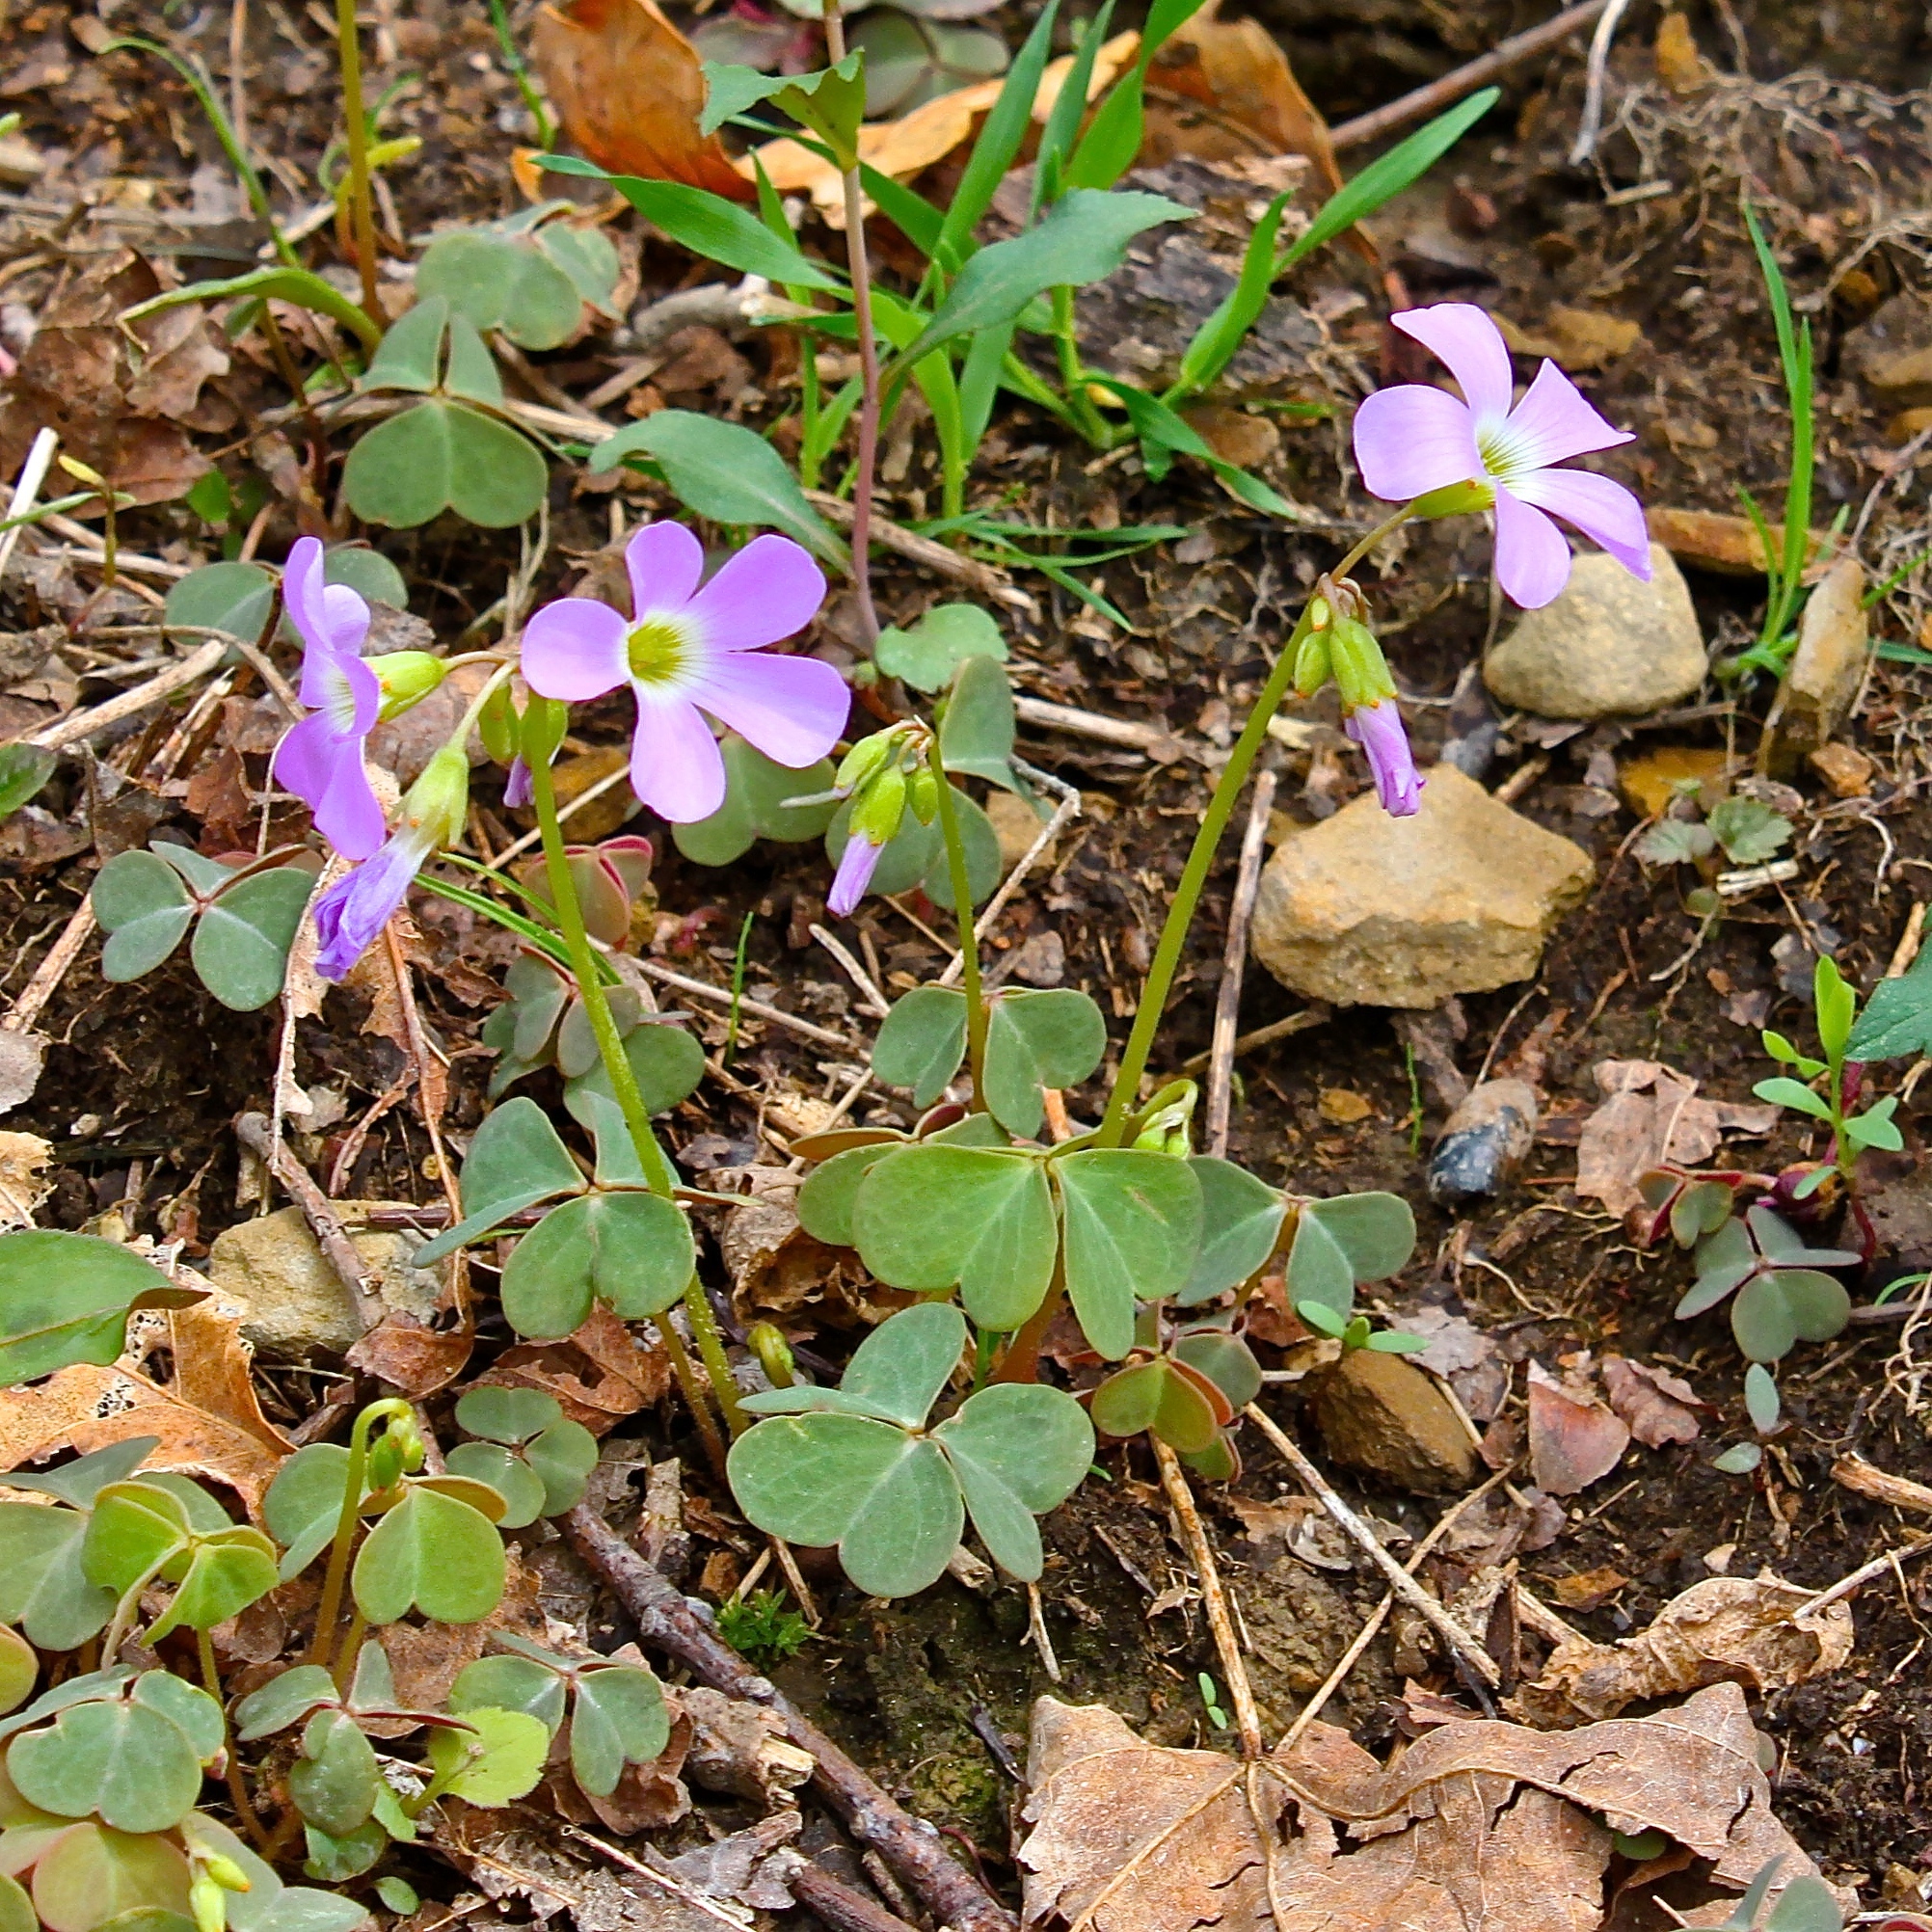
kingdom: Plantae
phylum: Tracheophyta
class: Magnoliopsida
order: Oxalidales
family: Oxalidaceae
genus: Oxalis
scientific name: Oxalis violacea
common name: Violet wood-sorrel
